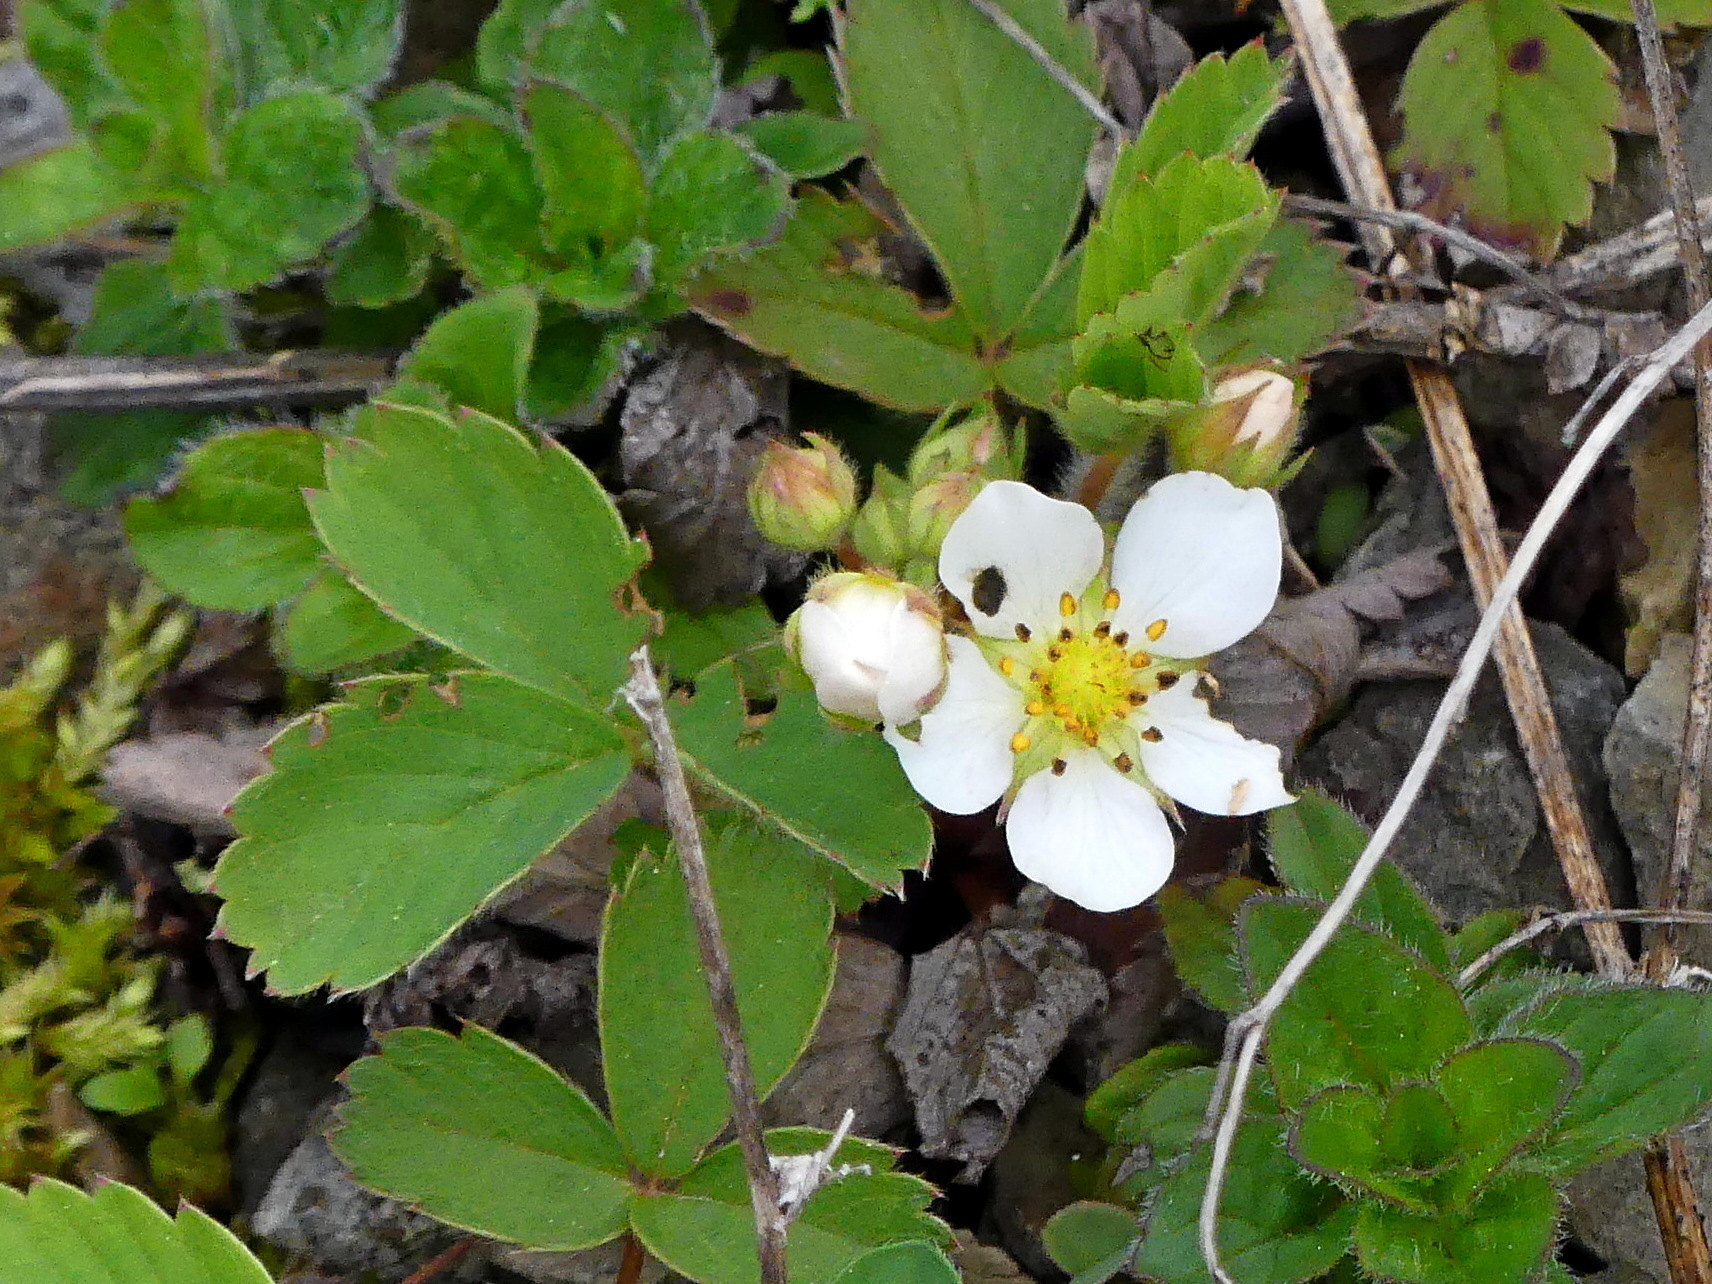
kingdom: Plantae
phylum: Tracheophyta
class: Magnoliopsida
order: Rosales
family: Rosaceae
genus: Fragaria
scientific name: Fragaria vesca
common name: Wild strawberry
